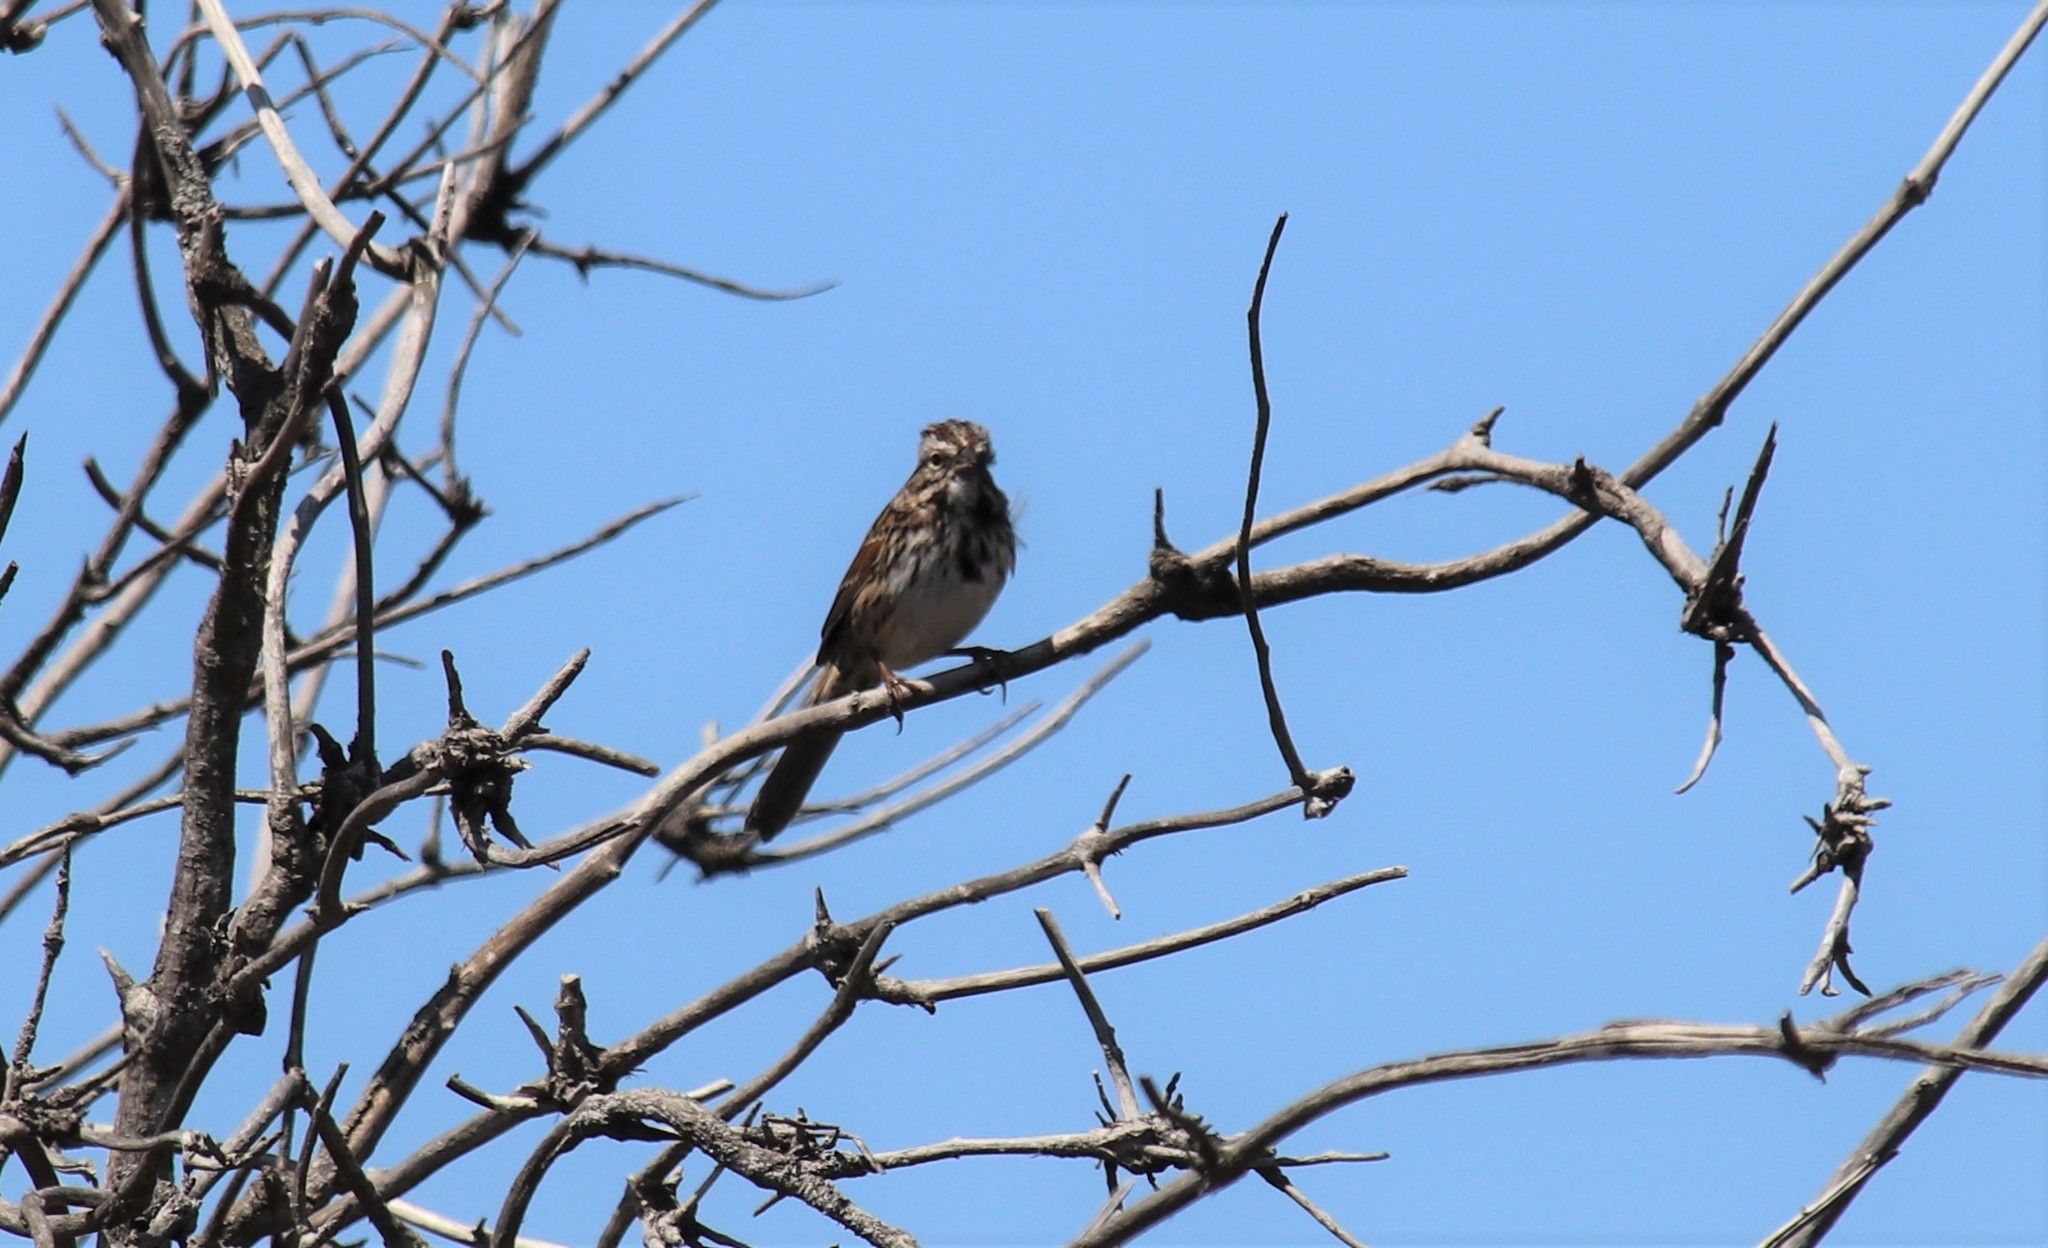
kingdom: Animalia
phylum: Chordata
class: Aves
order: Passeriformes
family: Passerellidae
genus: Melospiza
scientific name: Melospiza melodia
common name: Song sparrow
